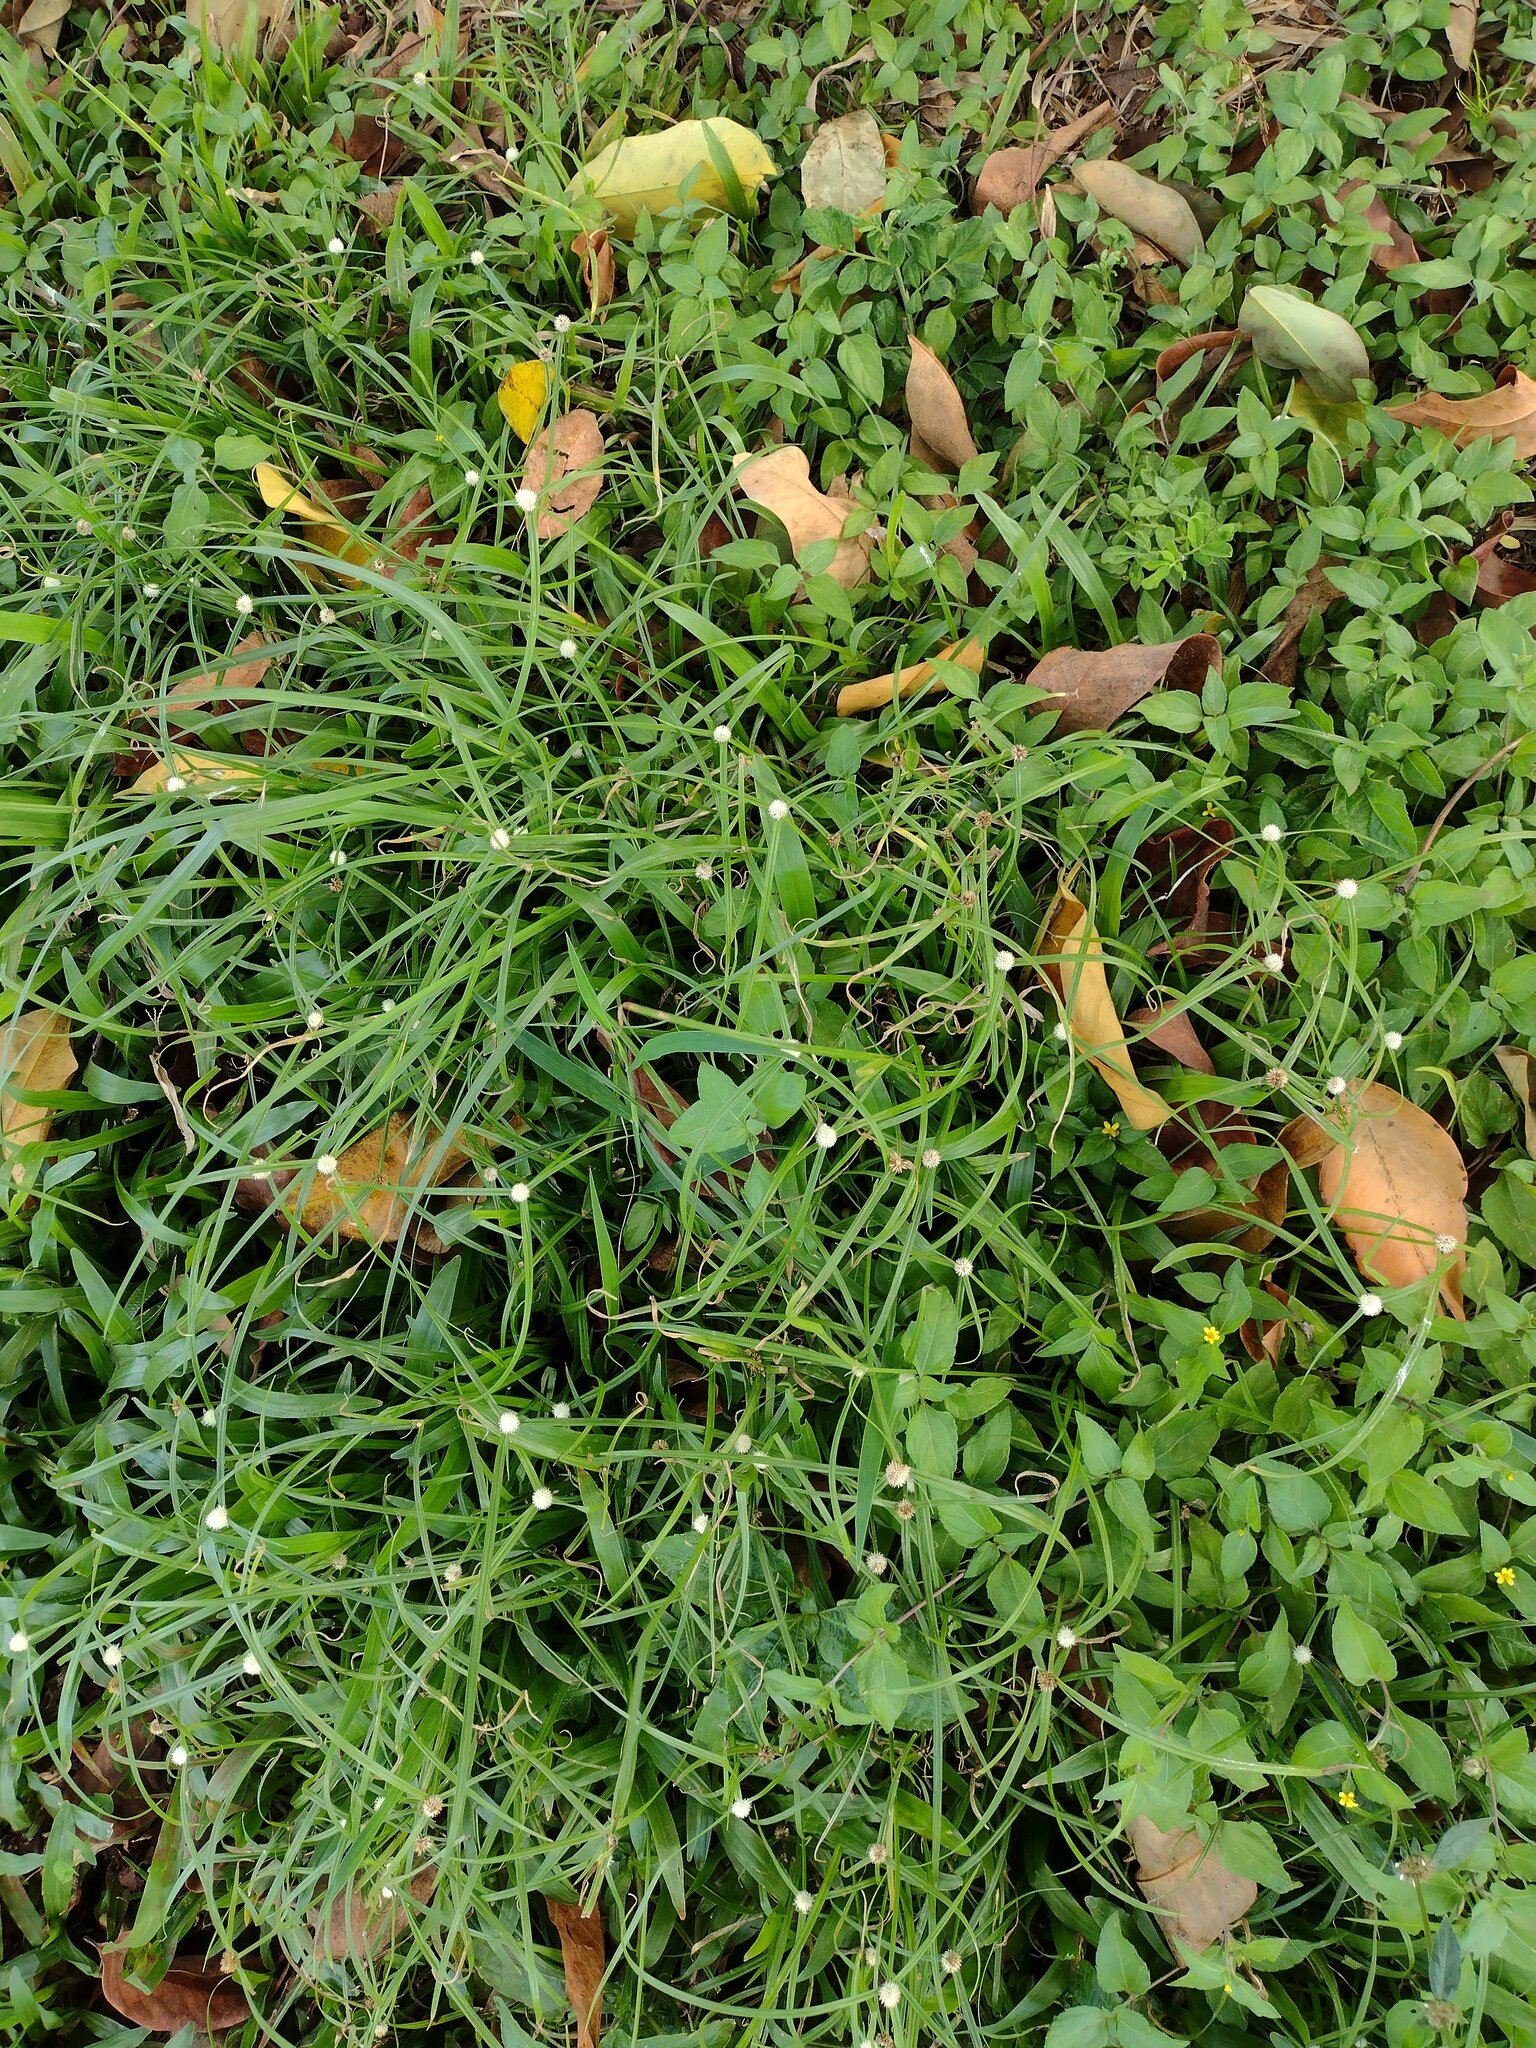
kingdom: Plantae
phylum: Tracheophyta
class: Liliopsida
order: Poales
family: Cyperaceae
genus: Cyperus
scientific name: Cyperus mindorensis
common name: Flatsedge
